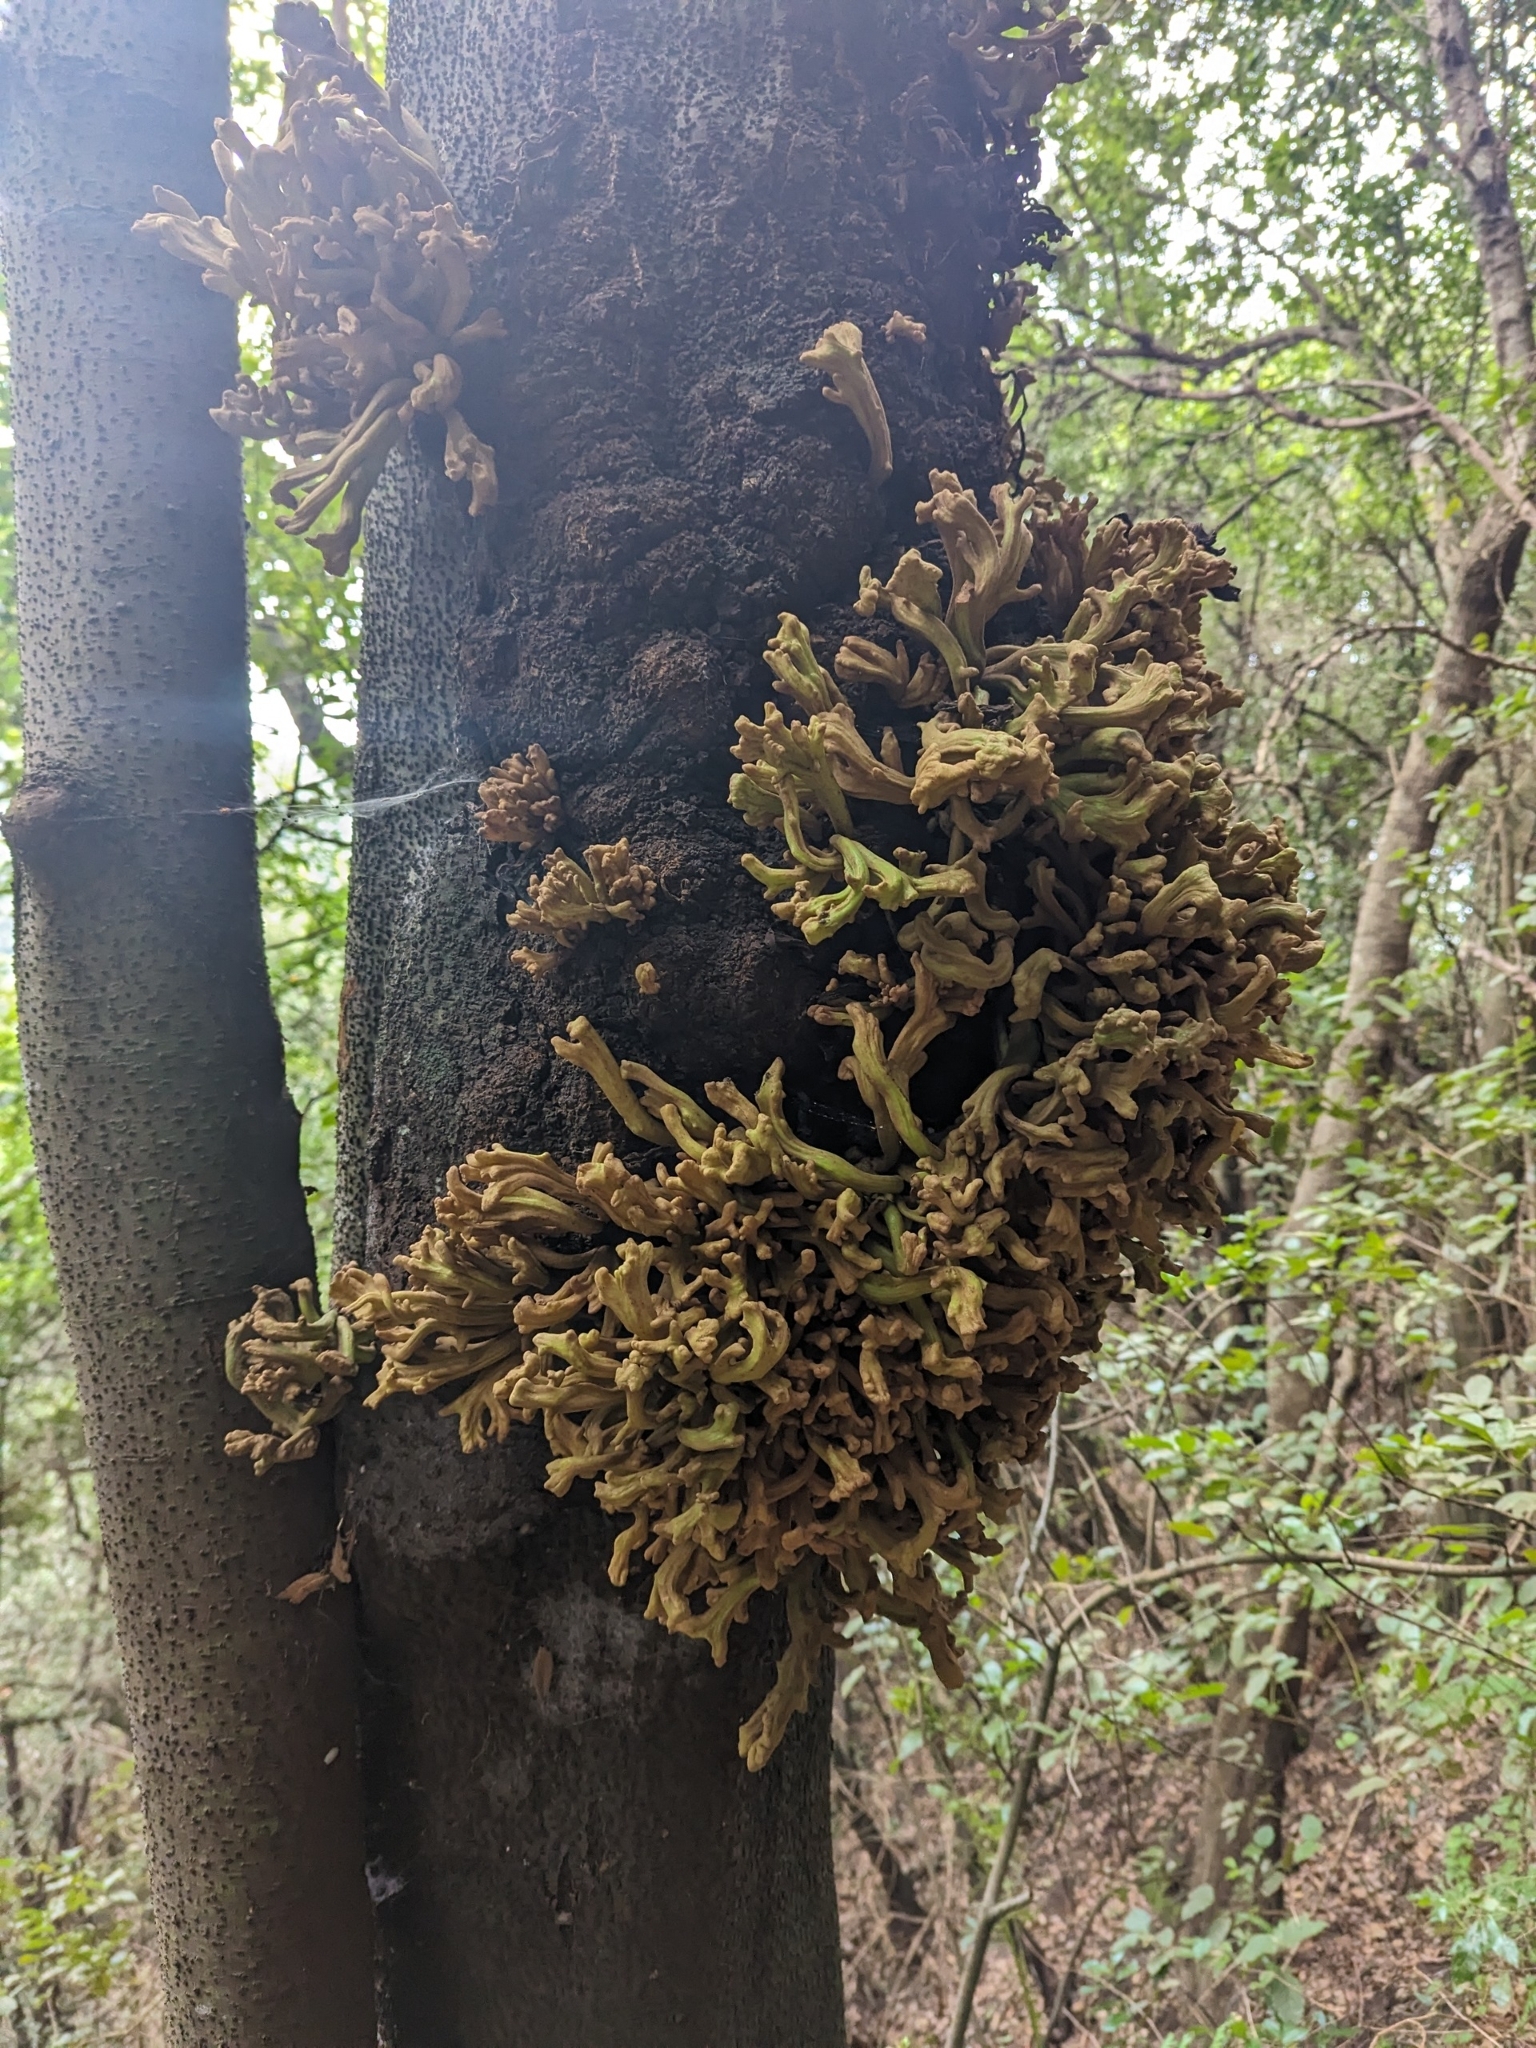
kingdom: Fungi
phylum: Basidiomycota
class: Exobasidiomycetes
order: Exobasidiales
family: Laurobasidiaceae
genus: Laurobasidium
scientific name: Laurobasidium lauri
